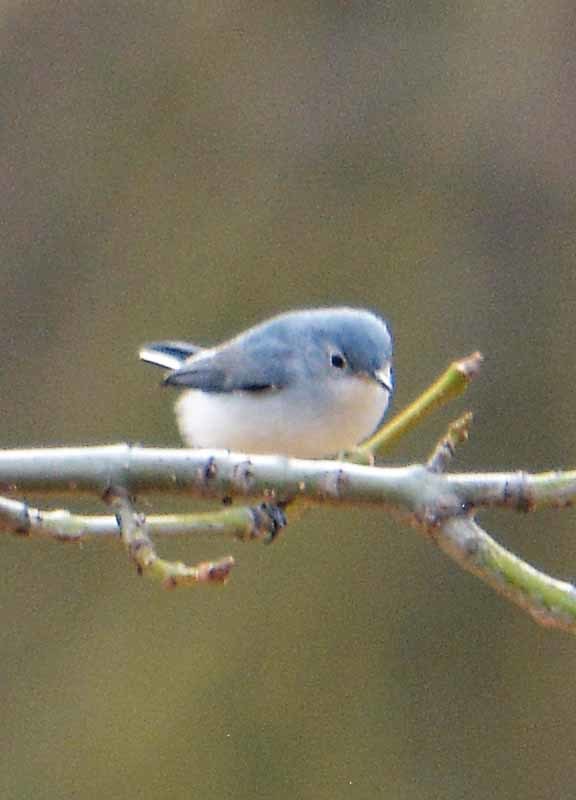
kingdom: Animalia
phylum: Chordata
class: Aves
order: Passeriformes
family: Polioptilidae
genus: Polioptila
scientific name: Polioptila caerulea
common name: Blue-gray gnatcatcher
